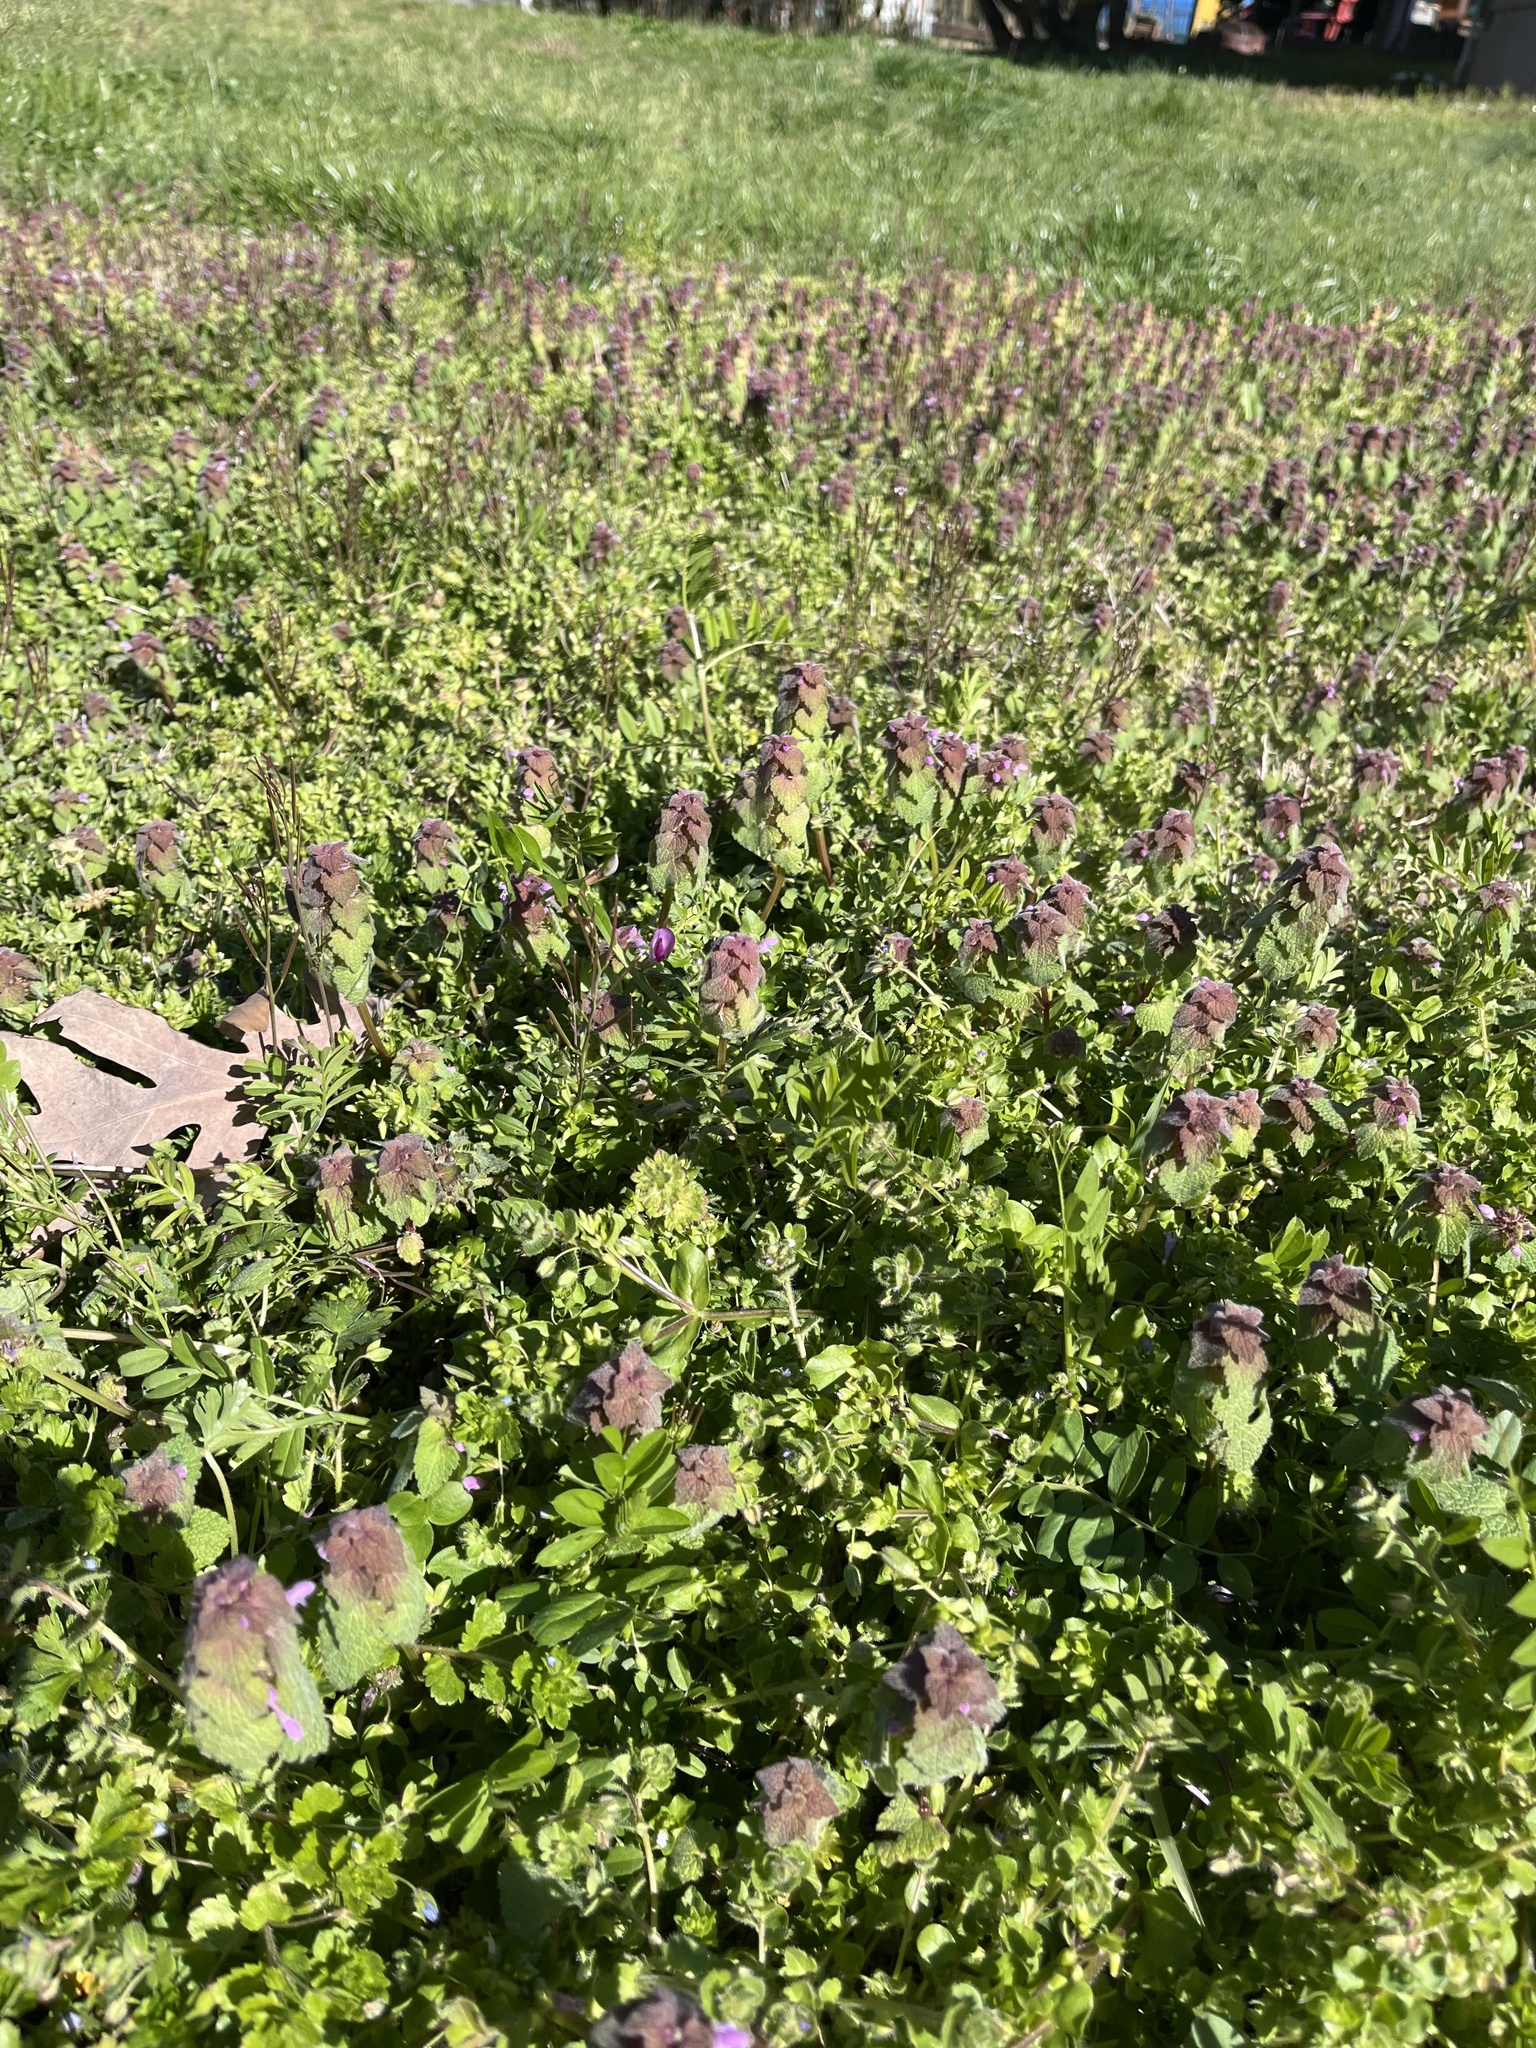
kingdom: Plantae
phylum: Tracheophyta
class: Magnoliopsida
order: Lamiales
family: Lamiaceae
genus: Lamium
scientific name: Lamium purpureum
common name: Red dead-nettle
